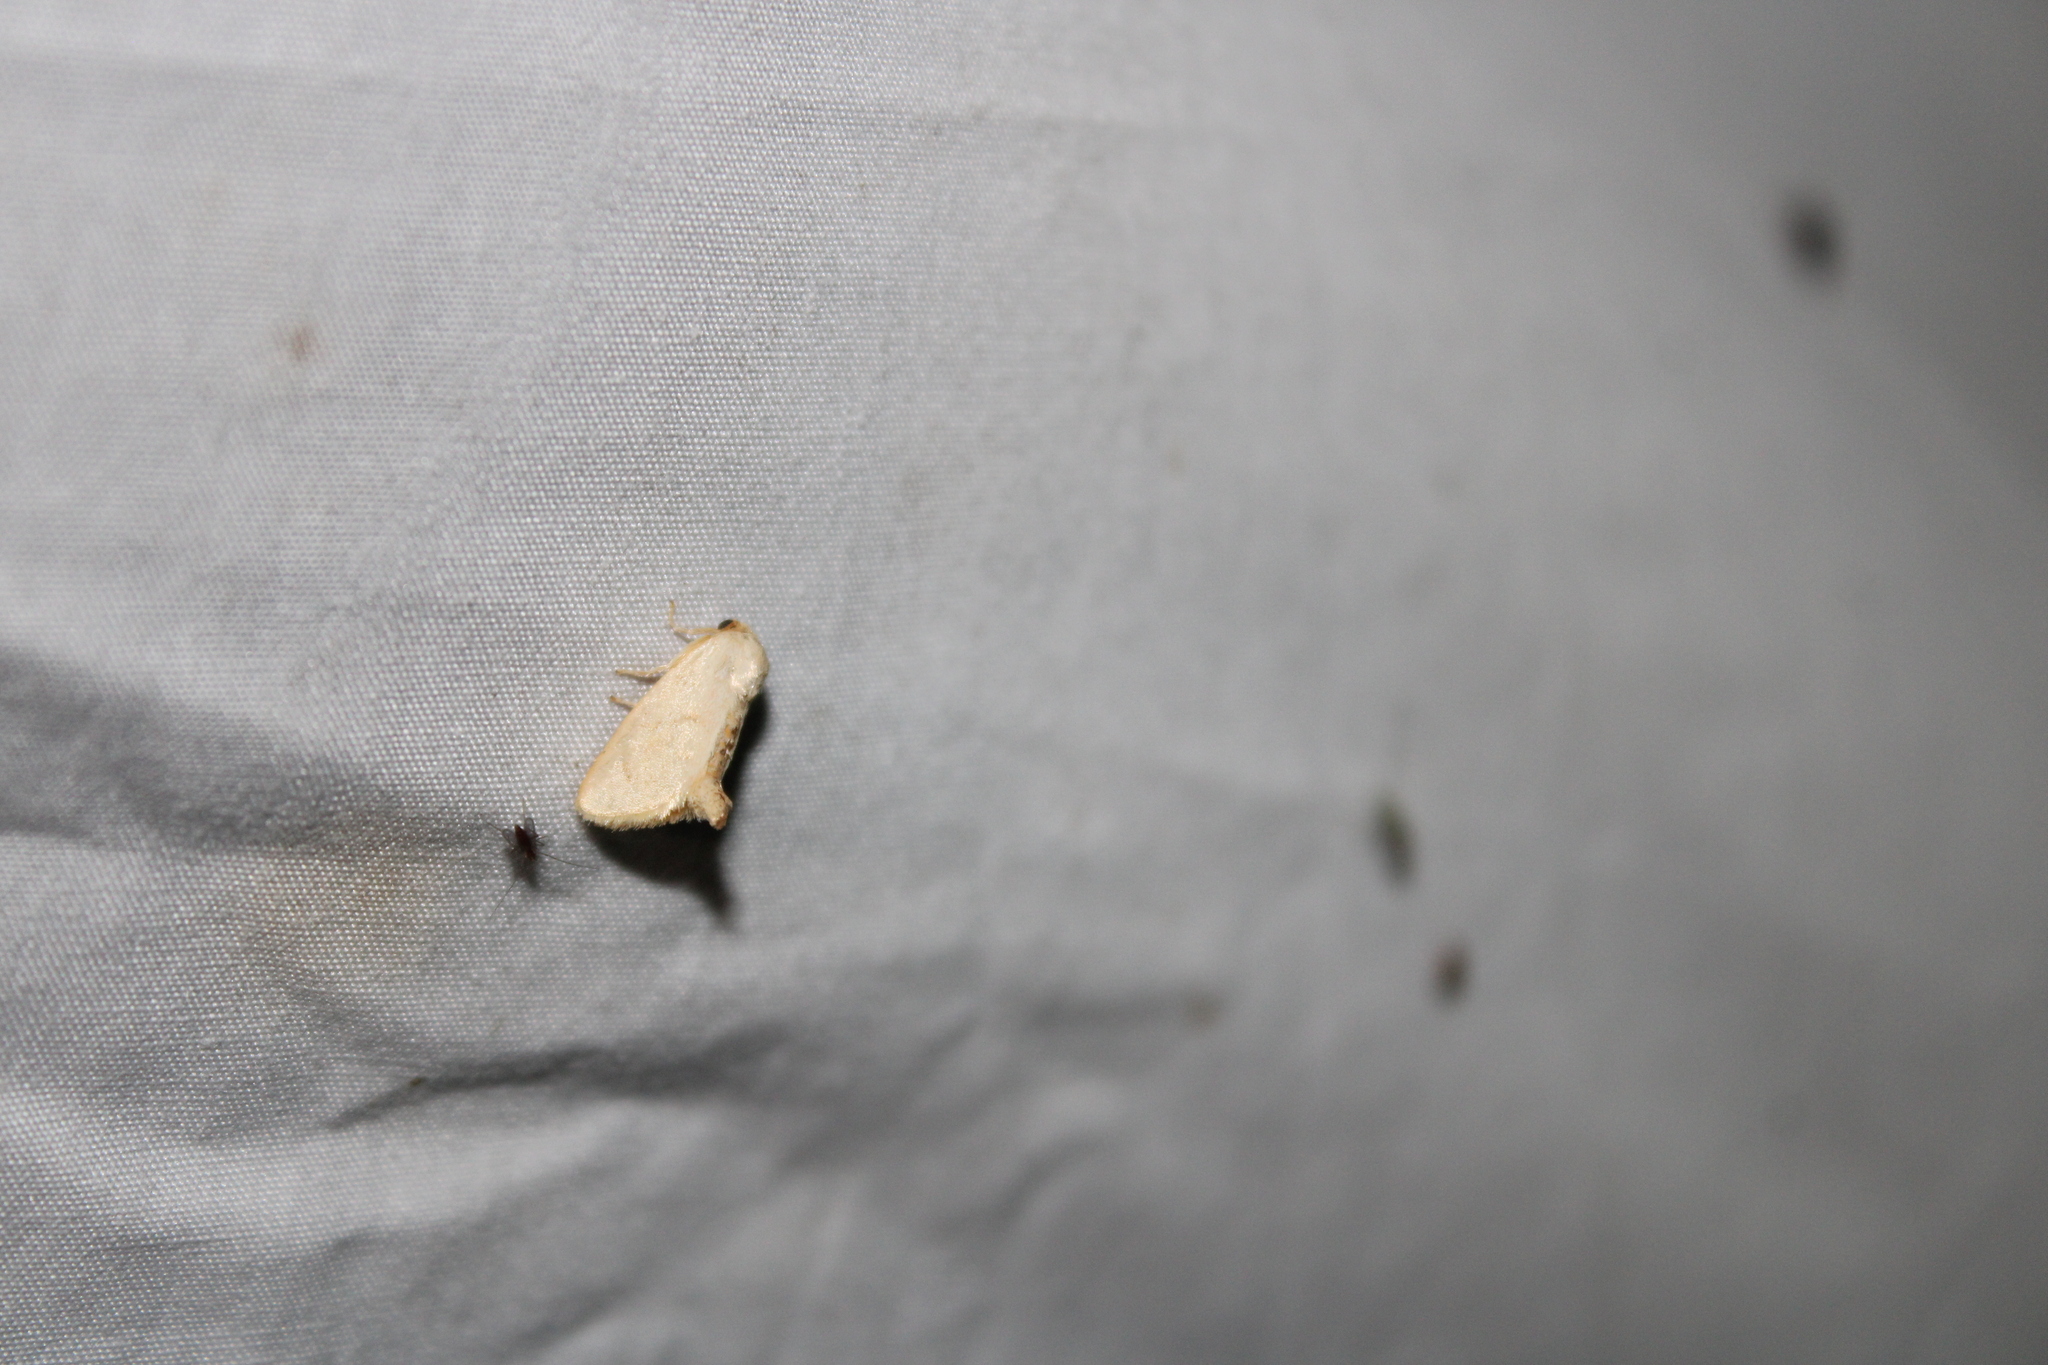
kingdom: Animalia
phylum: Arthropoda
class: Insecta
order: Lepidoptera
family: Limacodidae
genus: Tortricidia
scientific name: Tortricidia pallida
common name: Red-crossed button slug moth
